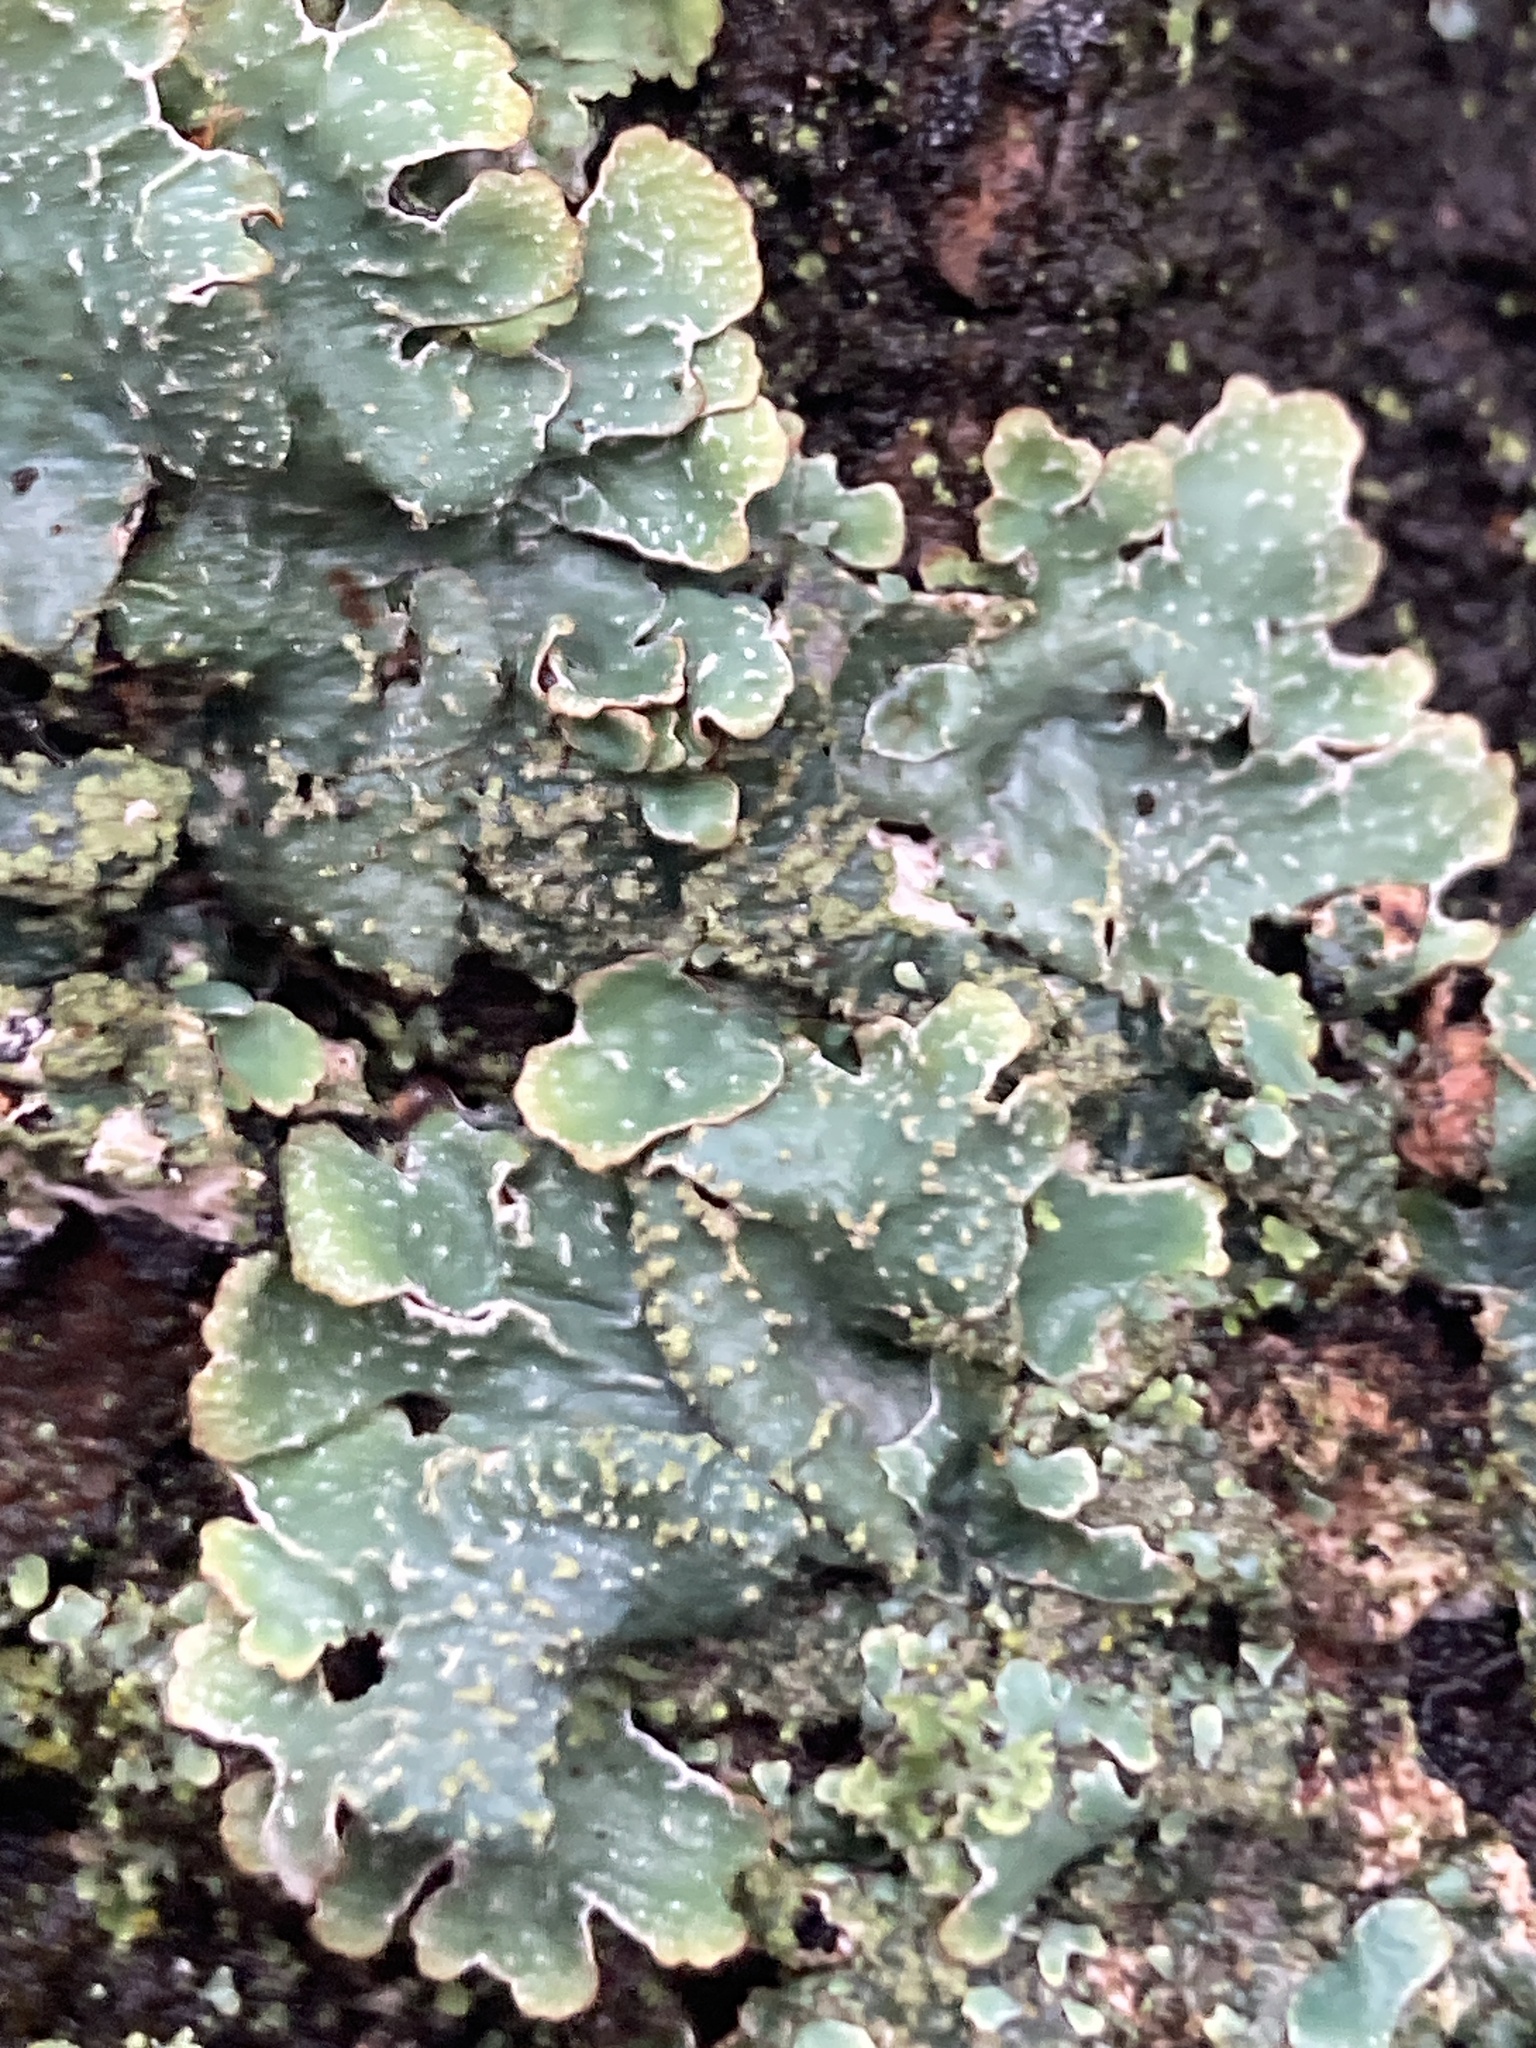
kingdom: Fungi
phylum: Ascomycota
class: Lecanoromycetes
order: Lecanorales
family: Parmeliaceae
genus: Parmelia
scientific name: Parmelia sulcata
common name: Netted shield lichen
